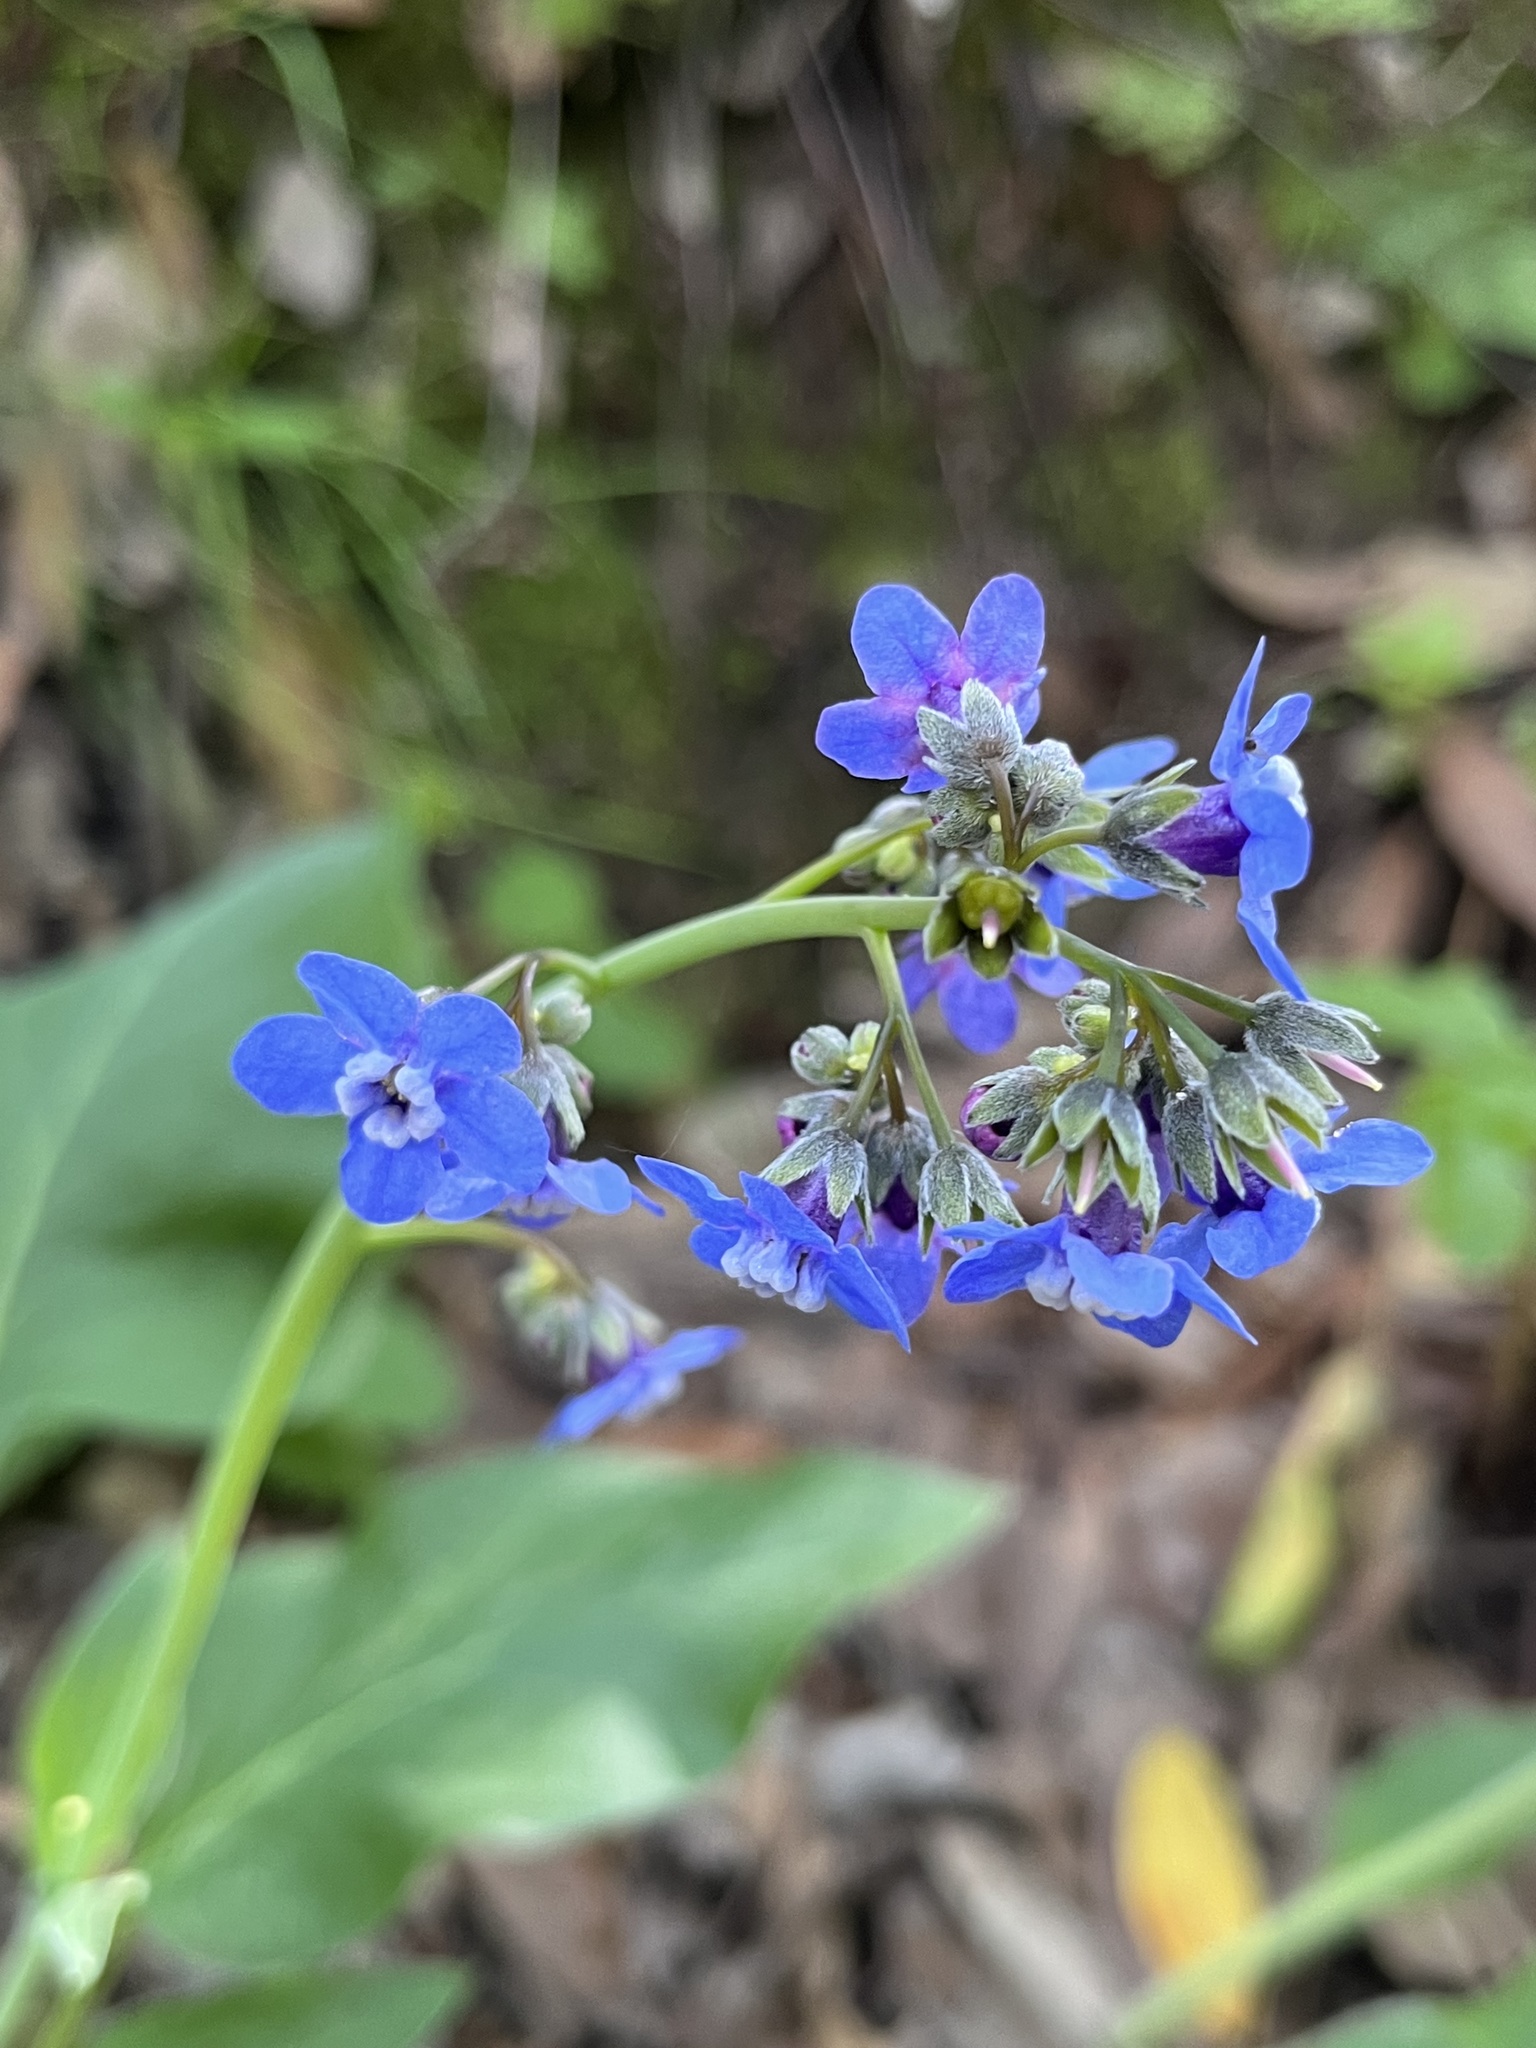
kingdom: Plantae
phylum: Tracheophyta
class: Magnoliopsida
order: Boraginales
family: Boraginaceae
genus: Adelinia
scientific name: Adelinia grande
